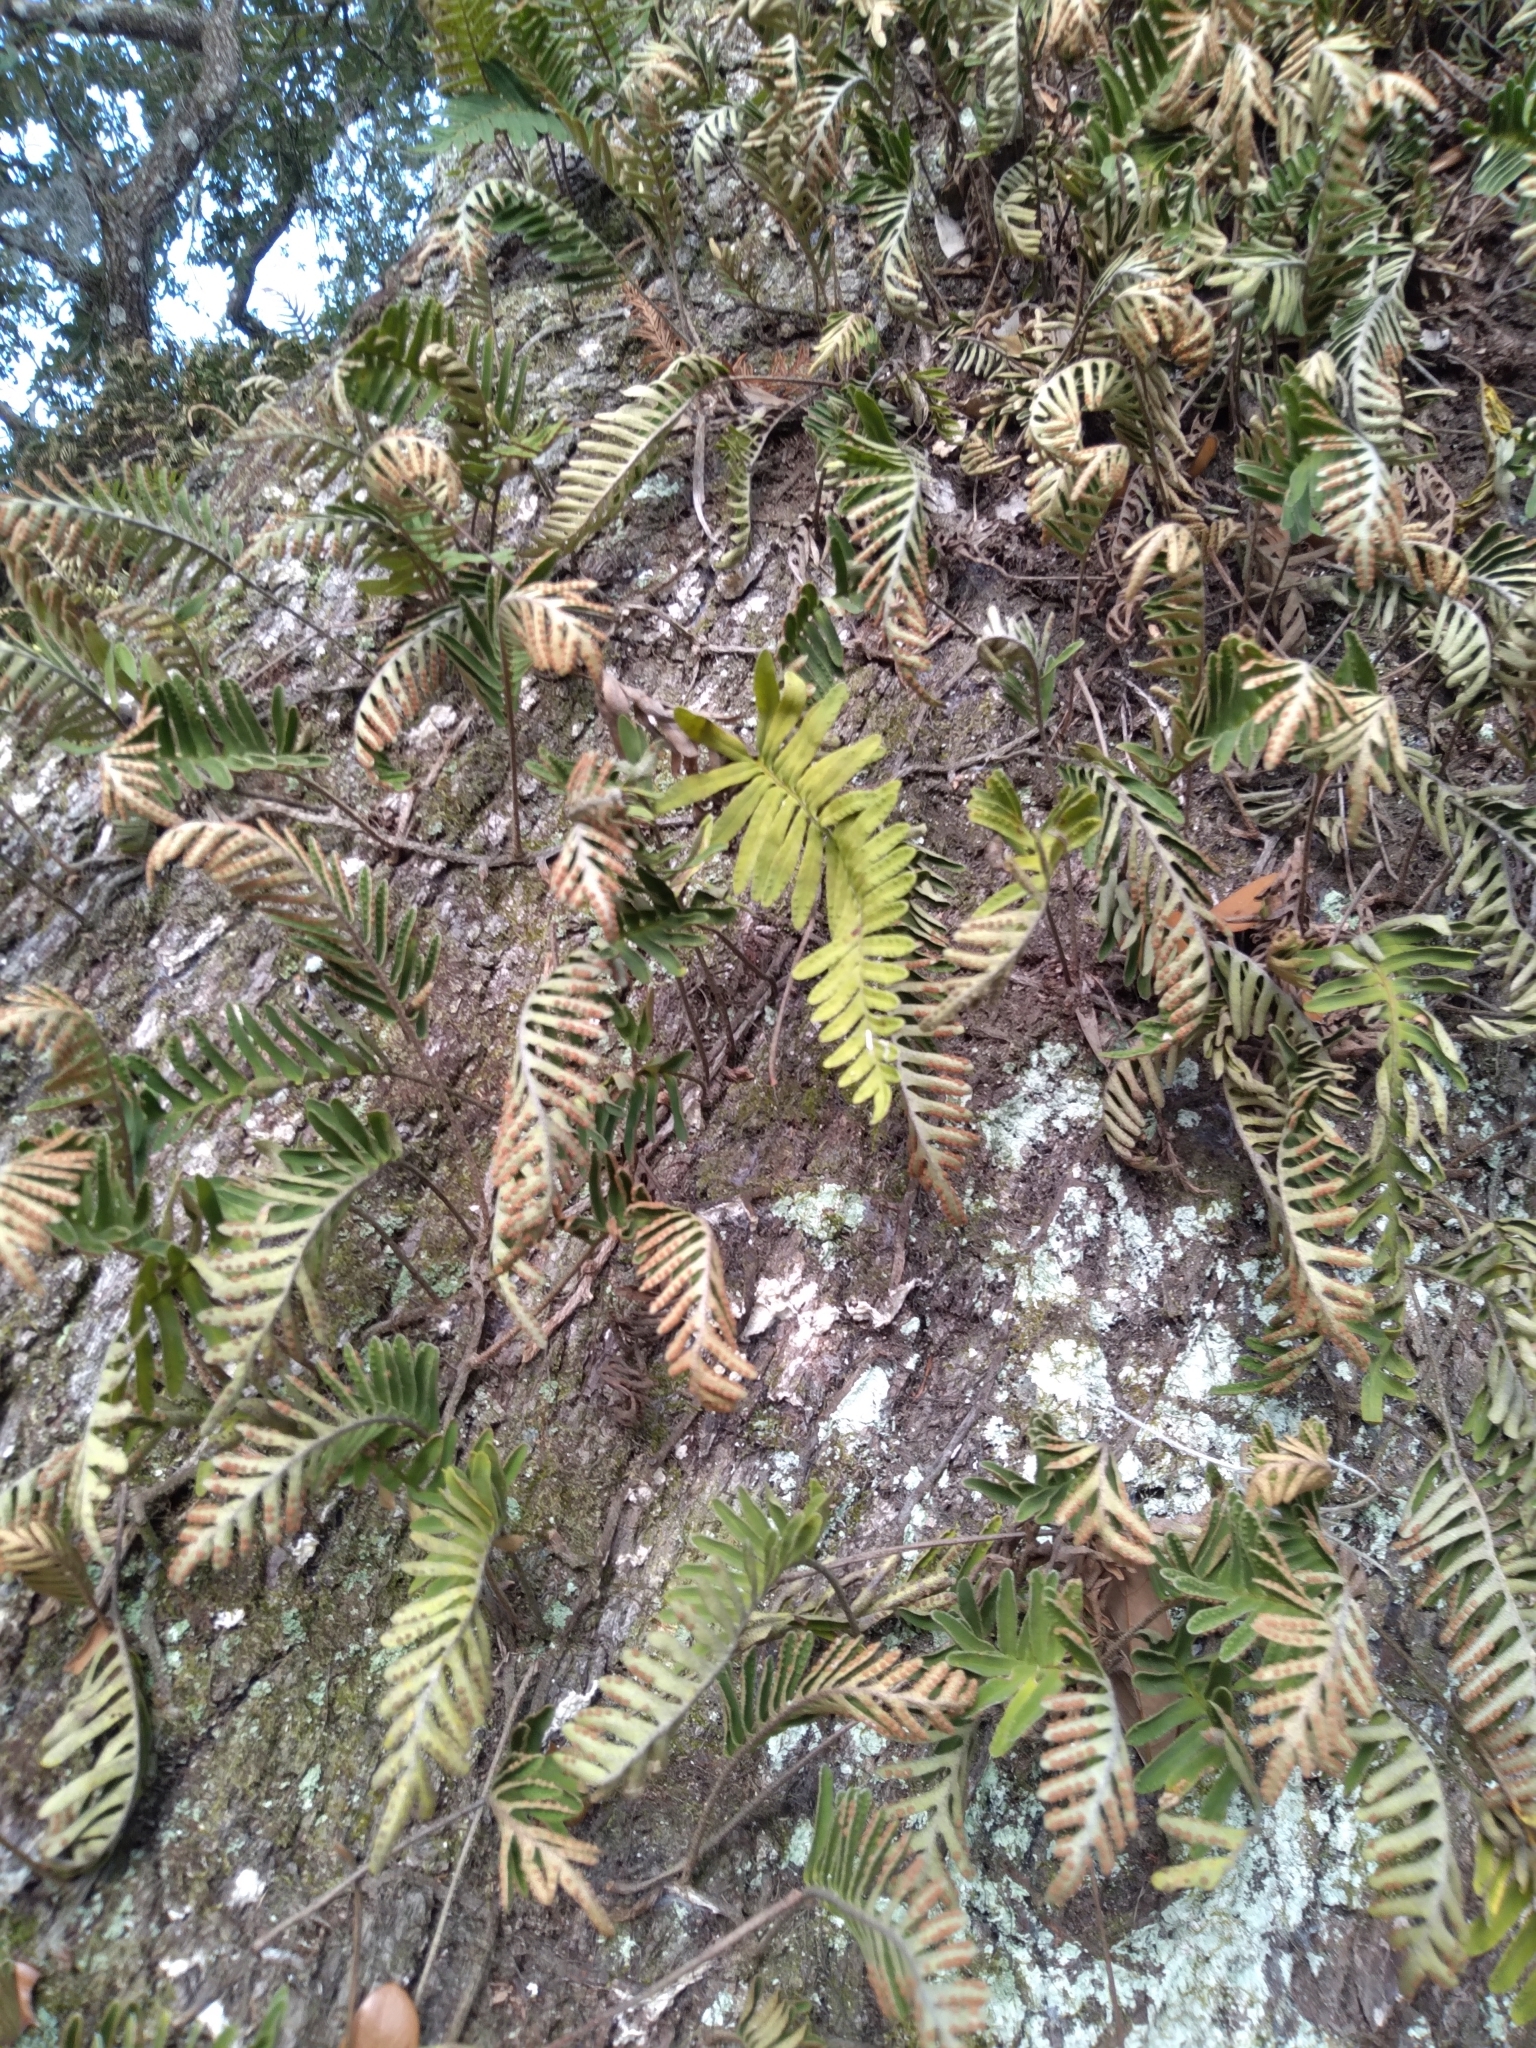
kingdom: Plantae
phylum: Tracheophyta
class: Polypodiopsida
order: Polypodiales
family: Polypodiaceae
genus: Pleopeltis
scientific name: Pleopeltis michauxiana
